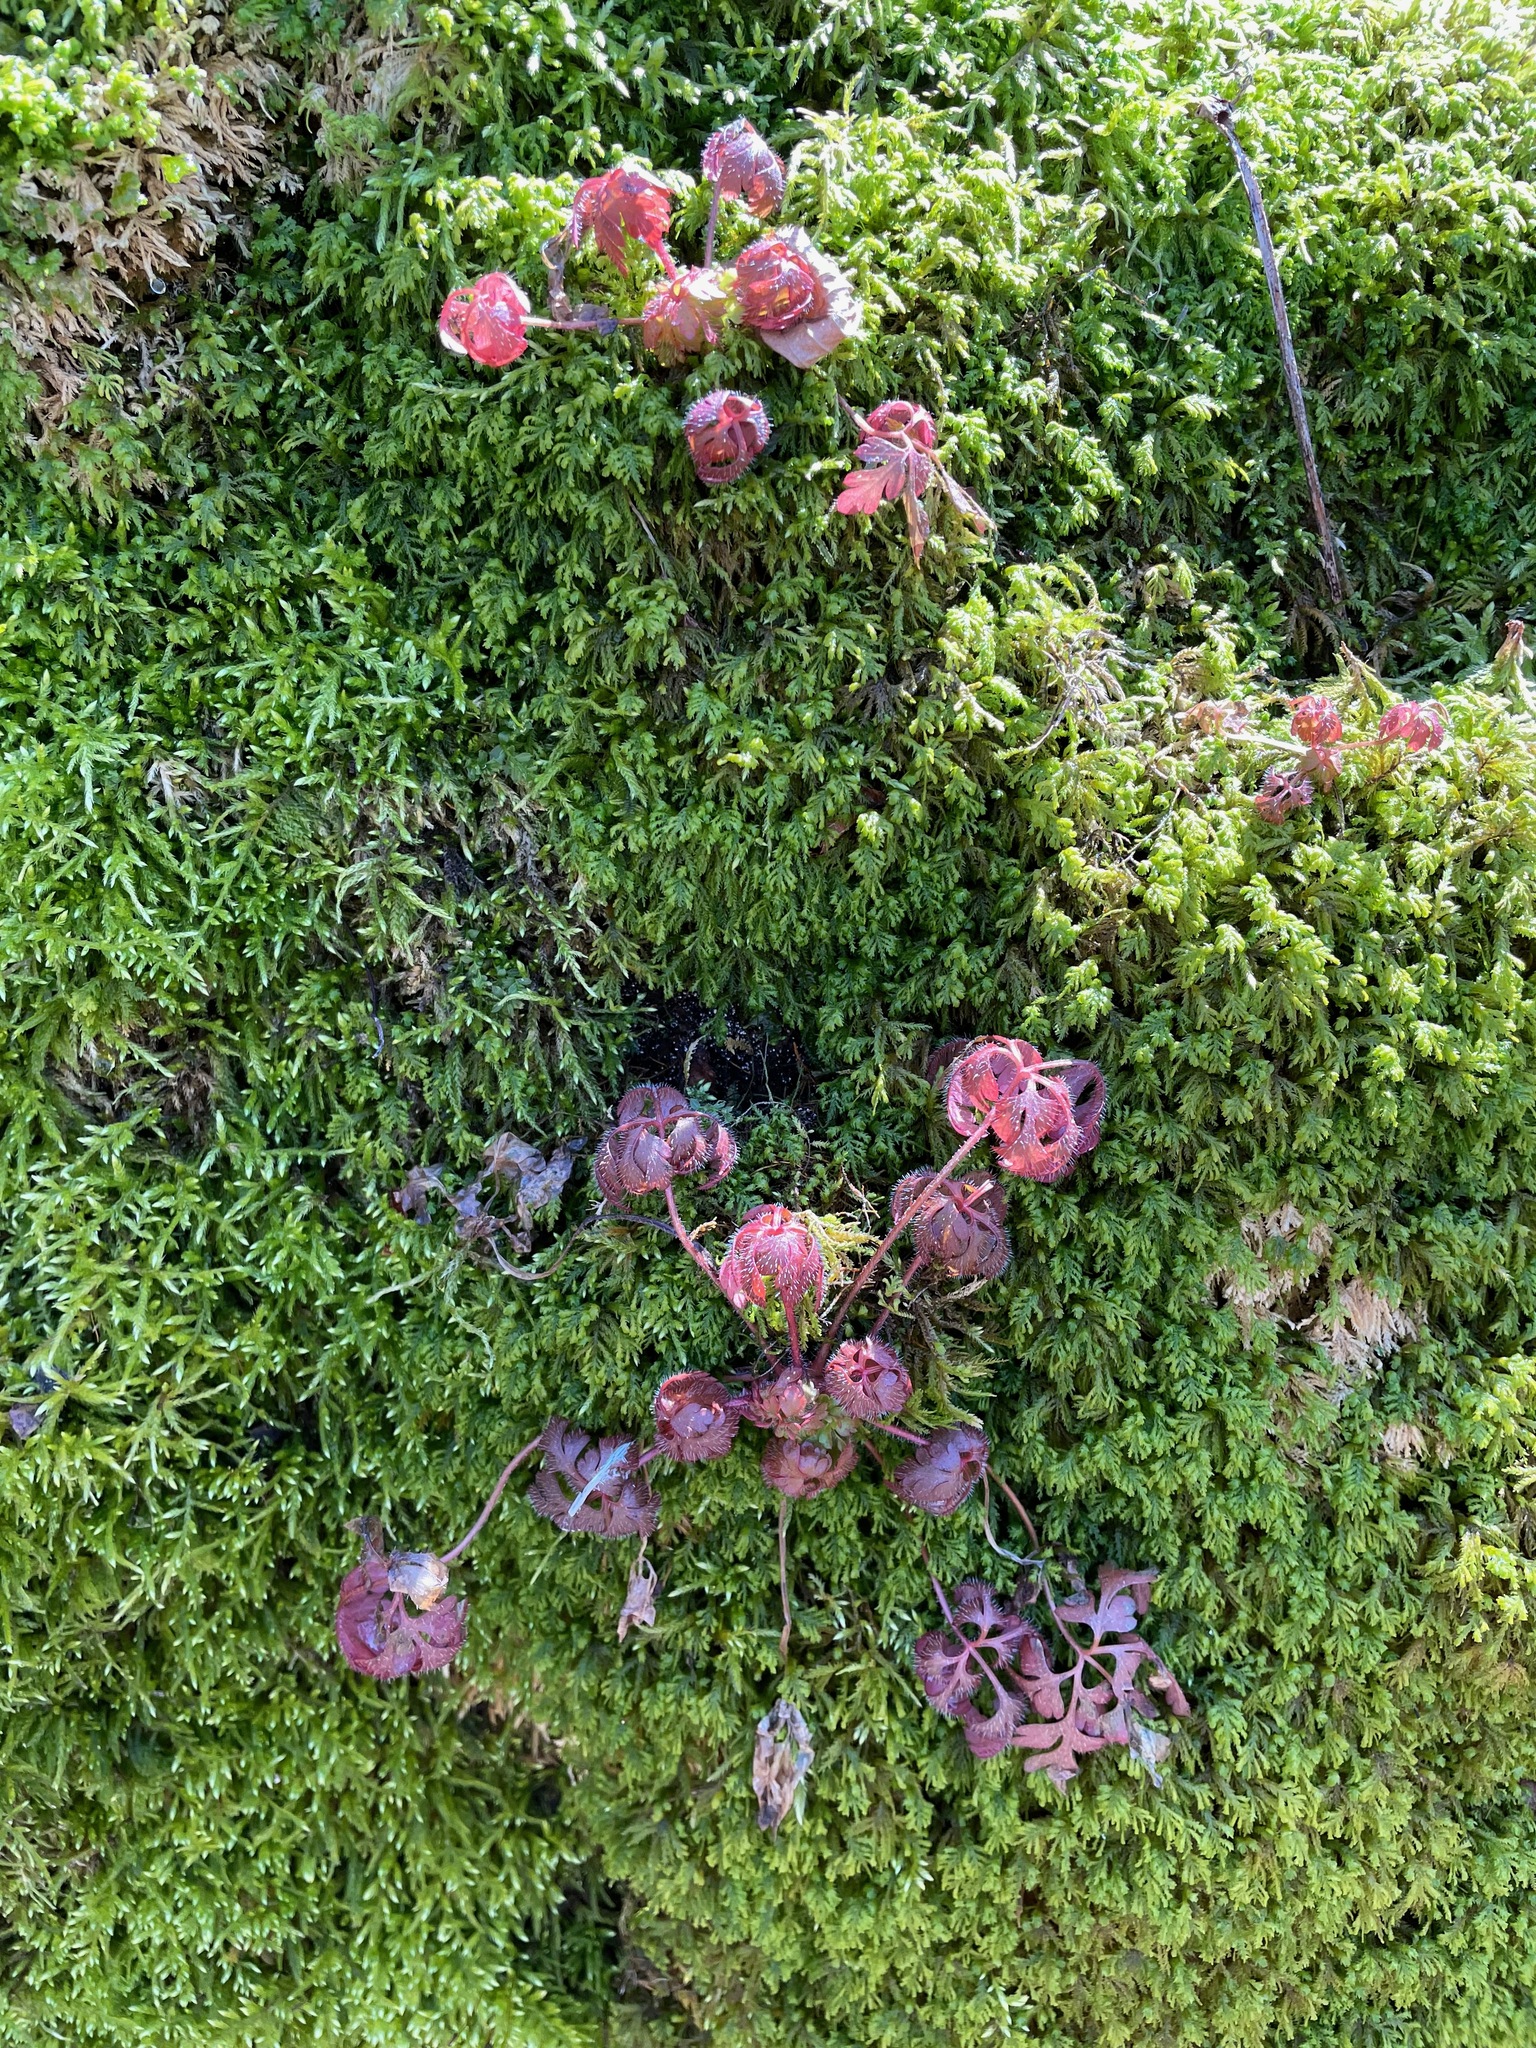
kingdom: Plantae
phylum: Tracheophyta
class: Magnoliopsida
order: Geraniales
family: Geraniaceae
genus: Geranium
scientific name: Geranium robertianum
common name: Herb-robert
